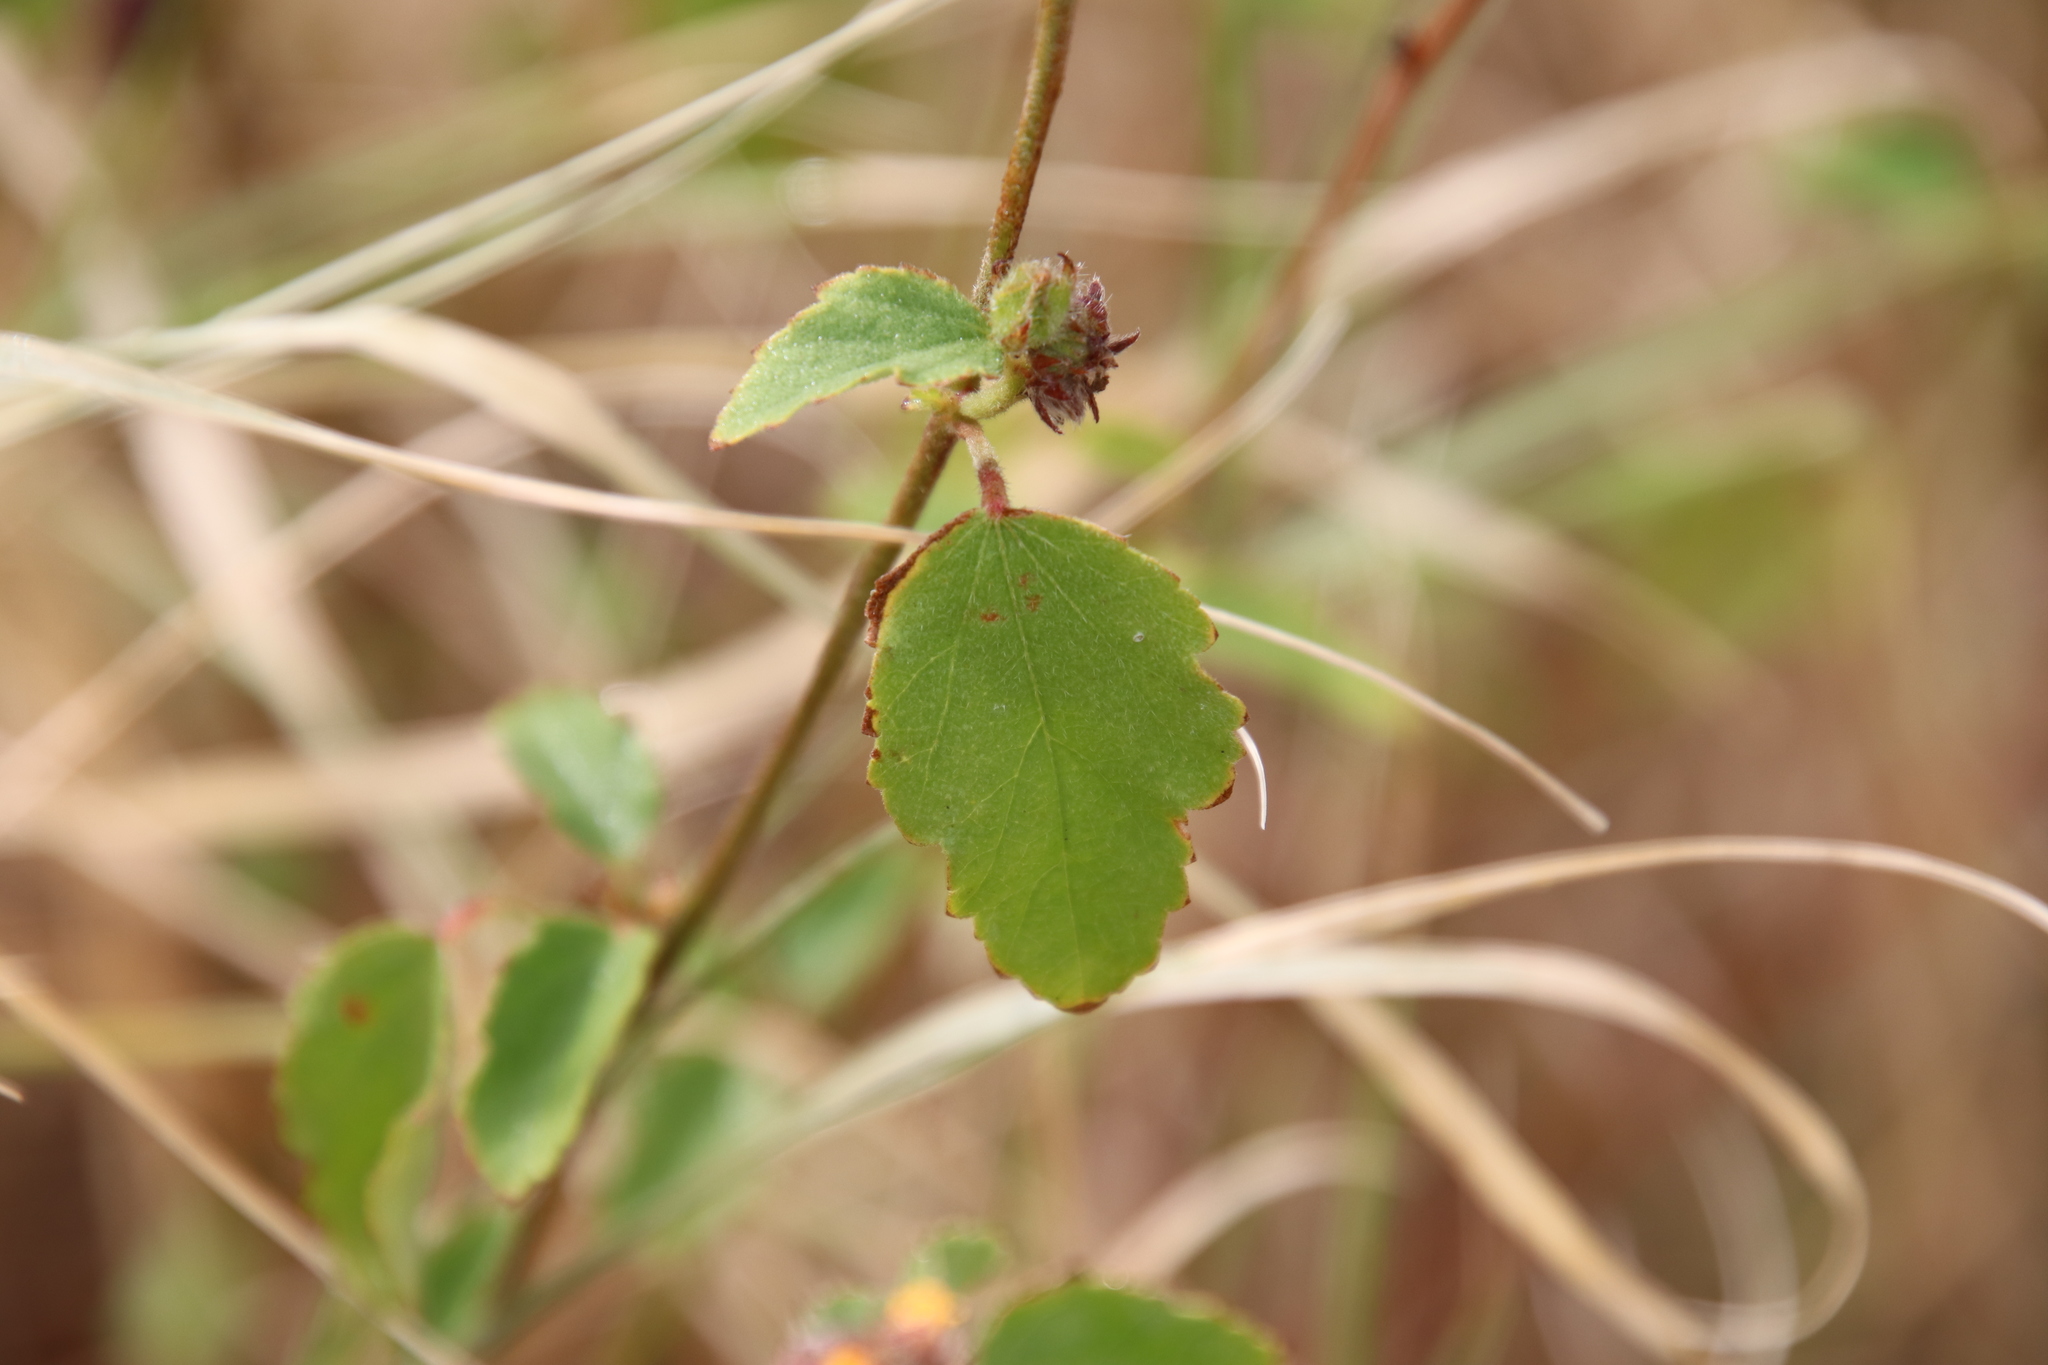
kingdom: Plantae
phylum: Tracheophyta
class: Magnoliopsida
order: Malvales
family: Malvaceae
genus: Malvastrum
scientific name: Malvastrum americanum
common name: Spiked malvastrum
